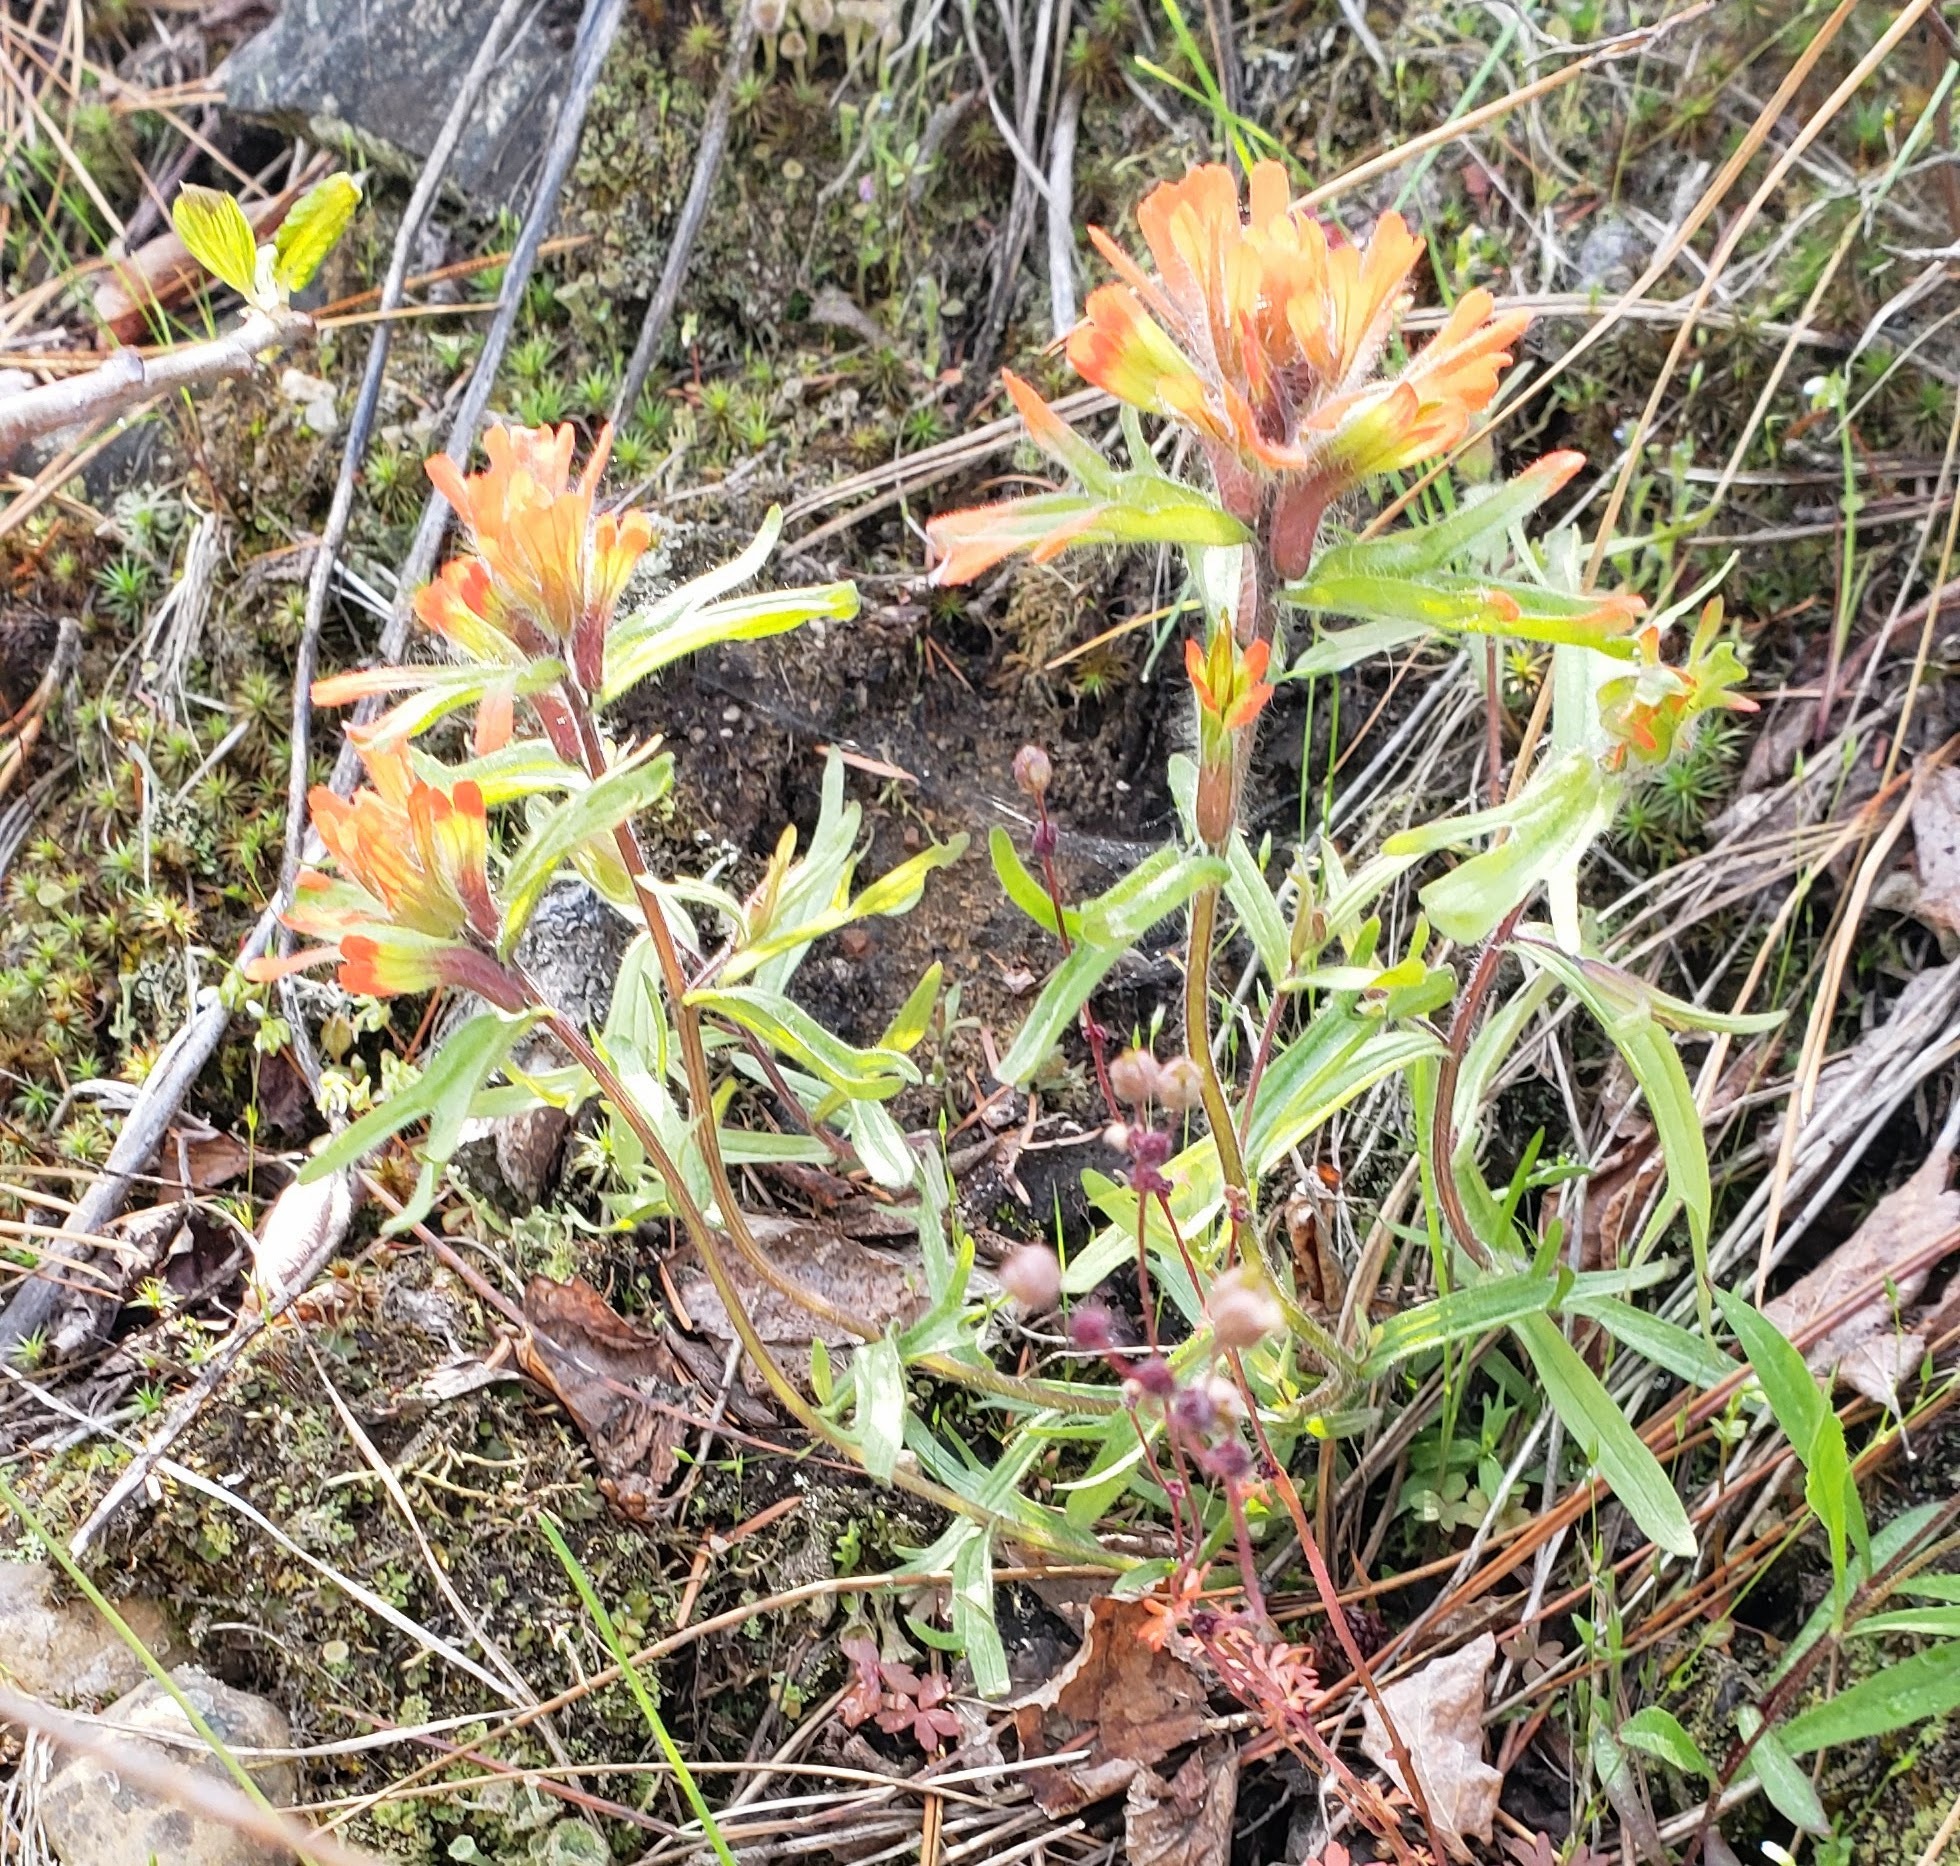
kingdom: Plantae
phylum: Tracheophyta
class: Magnoliopsida
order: Lamiales
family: Orobanchaceae
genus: Castilleja
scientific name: Castilleja hispida
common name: Bristly paintbrush
